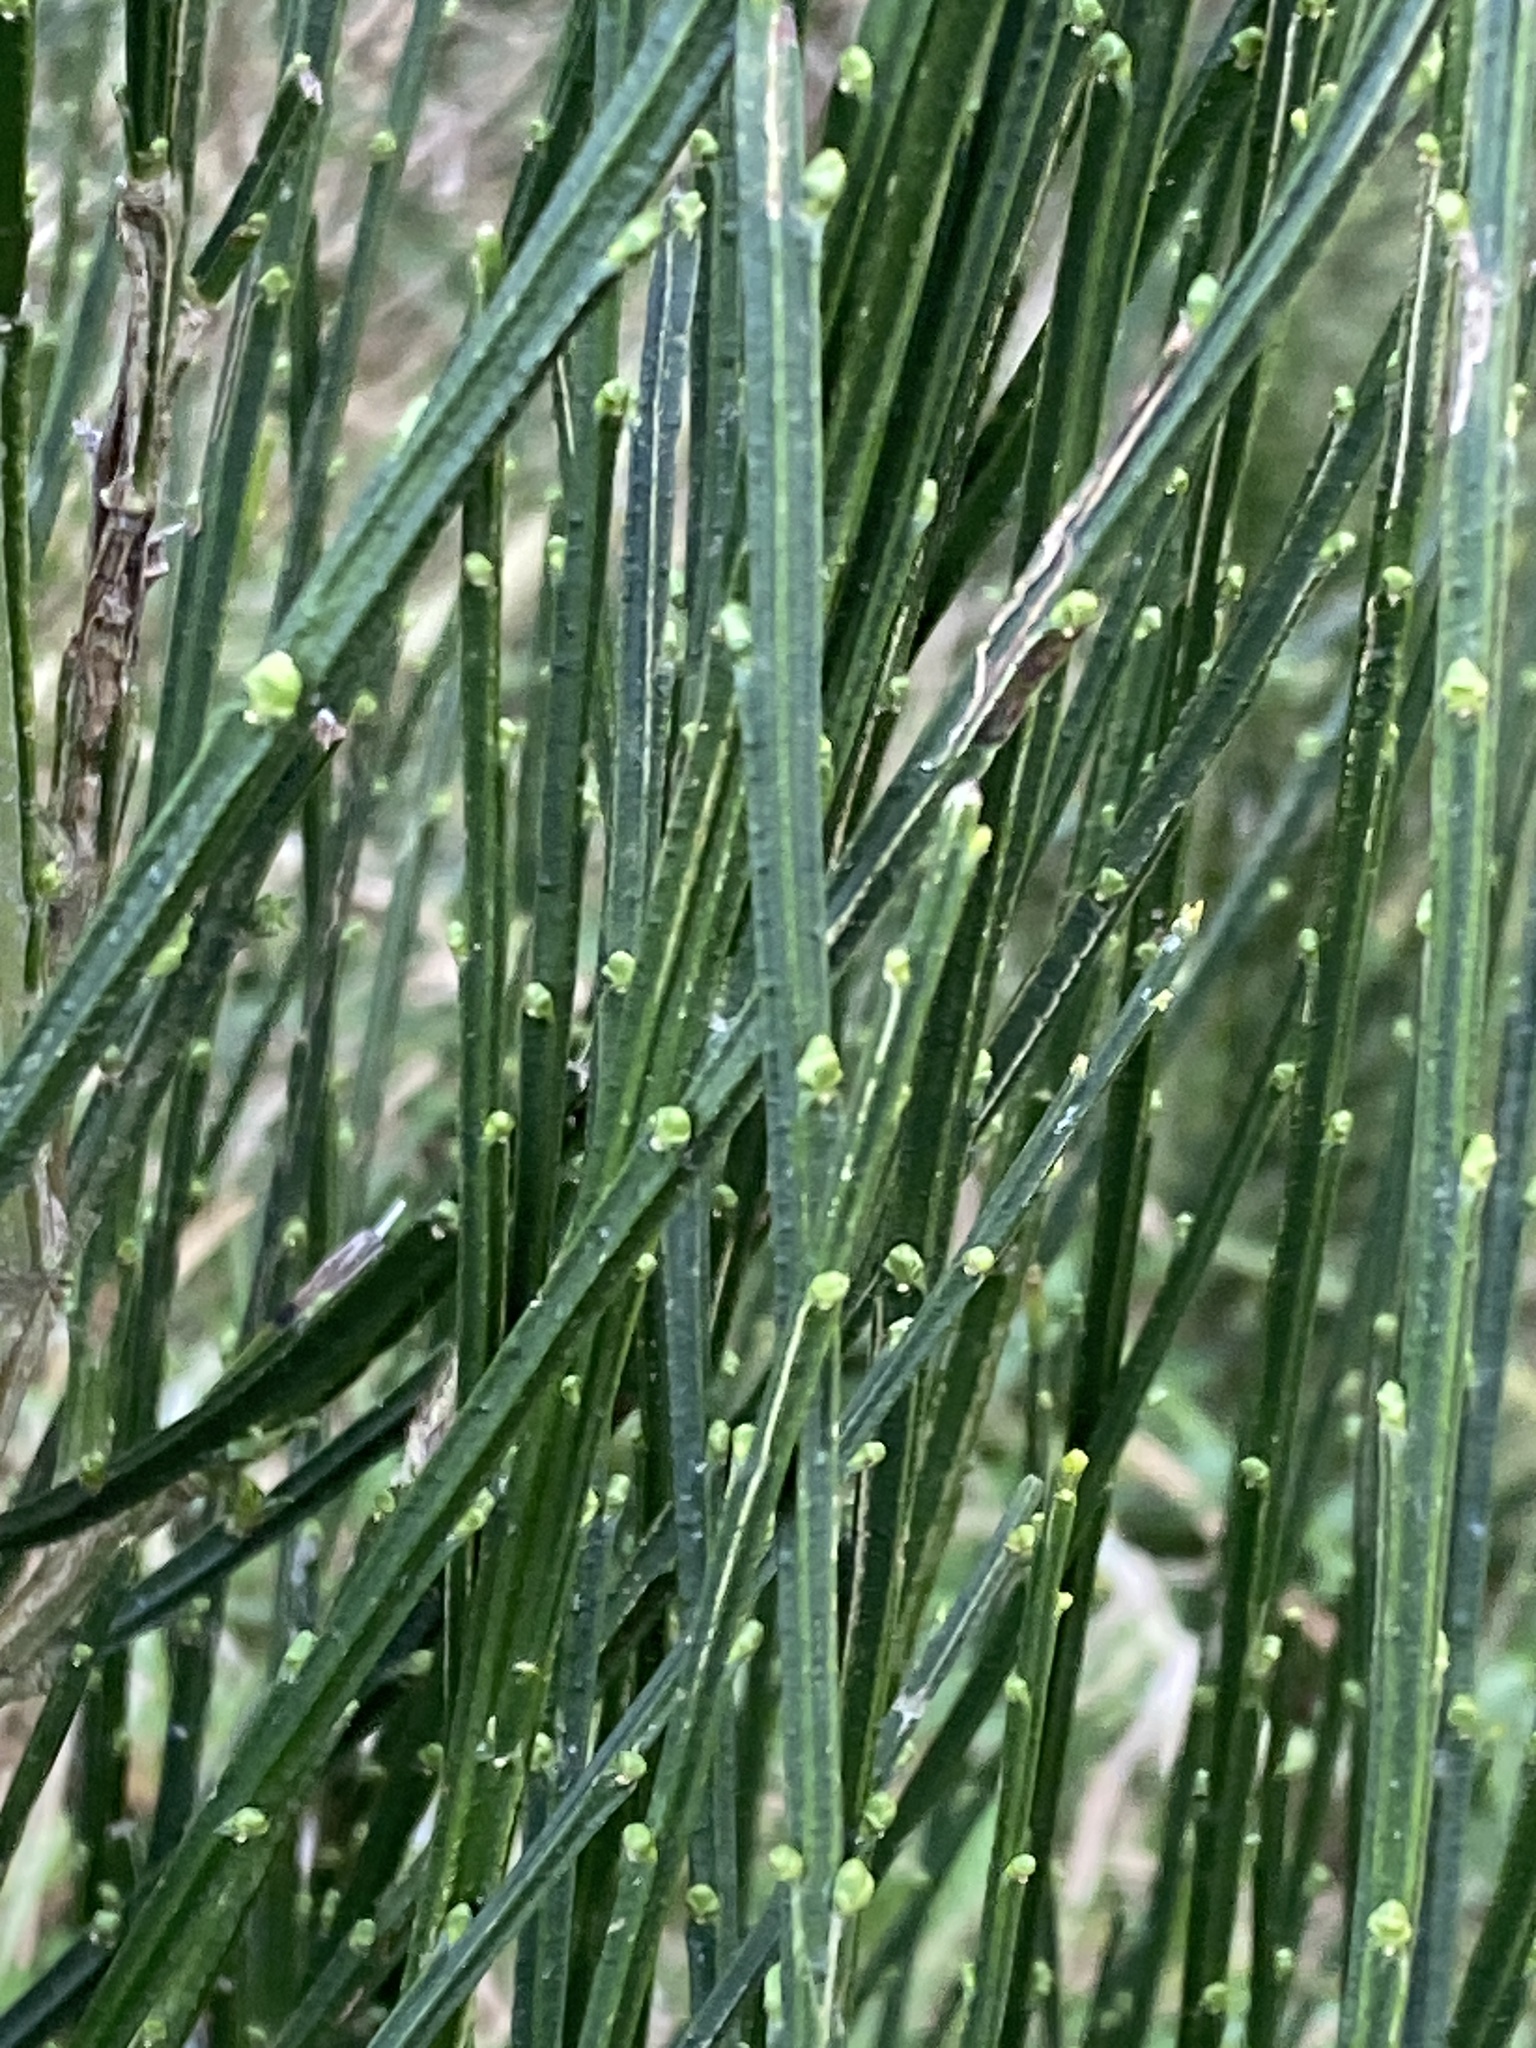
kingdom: Plantae
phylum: Tracheophyta
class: Magnoliopsida
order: Fabales
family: Fabaceae
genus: Cytisus
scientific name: Cytisus scoparius
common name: Scotch broom
